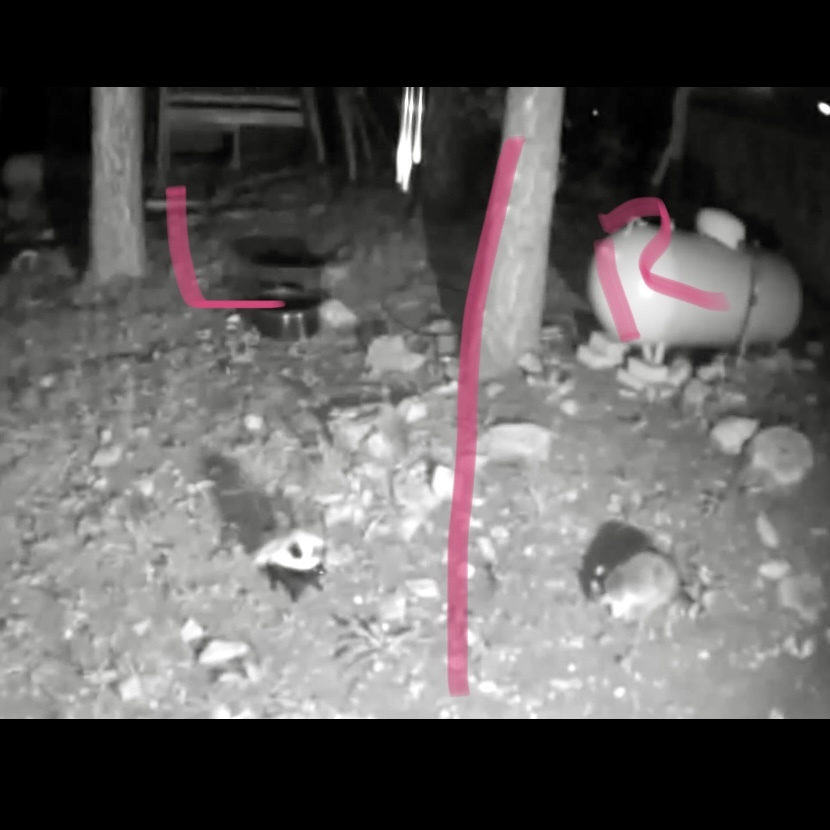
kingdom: Animalia
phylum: Chordata
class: Mammalia
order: Carnivora
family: Mephitidae
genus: Mephitis
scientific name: Mephitis mephitis
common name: Striped skunk
